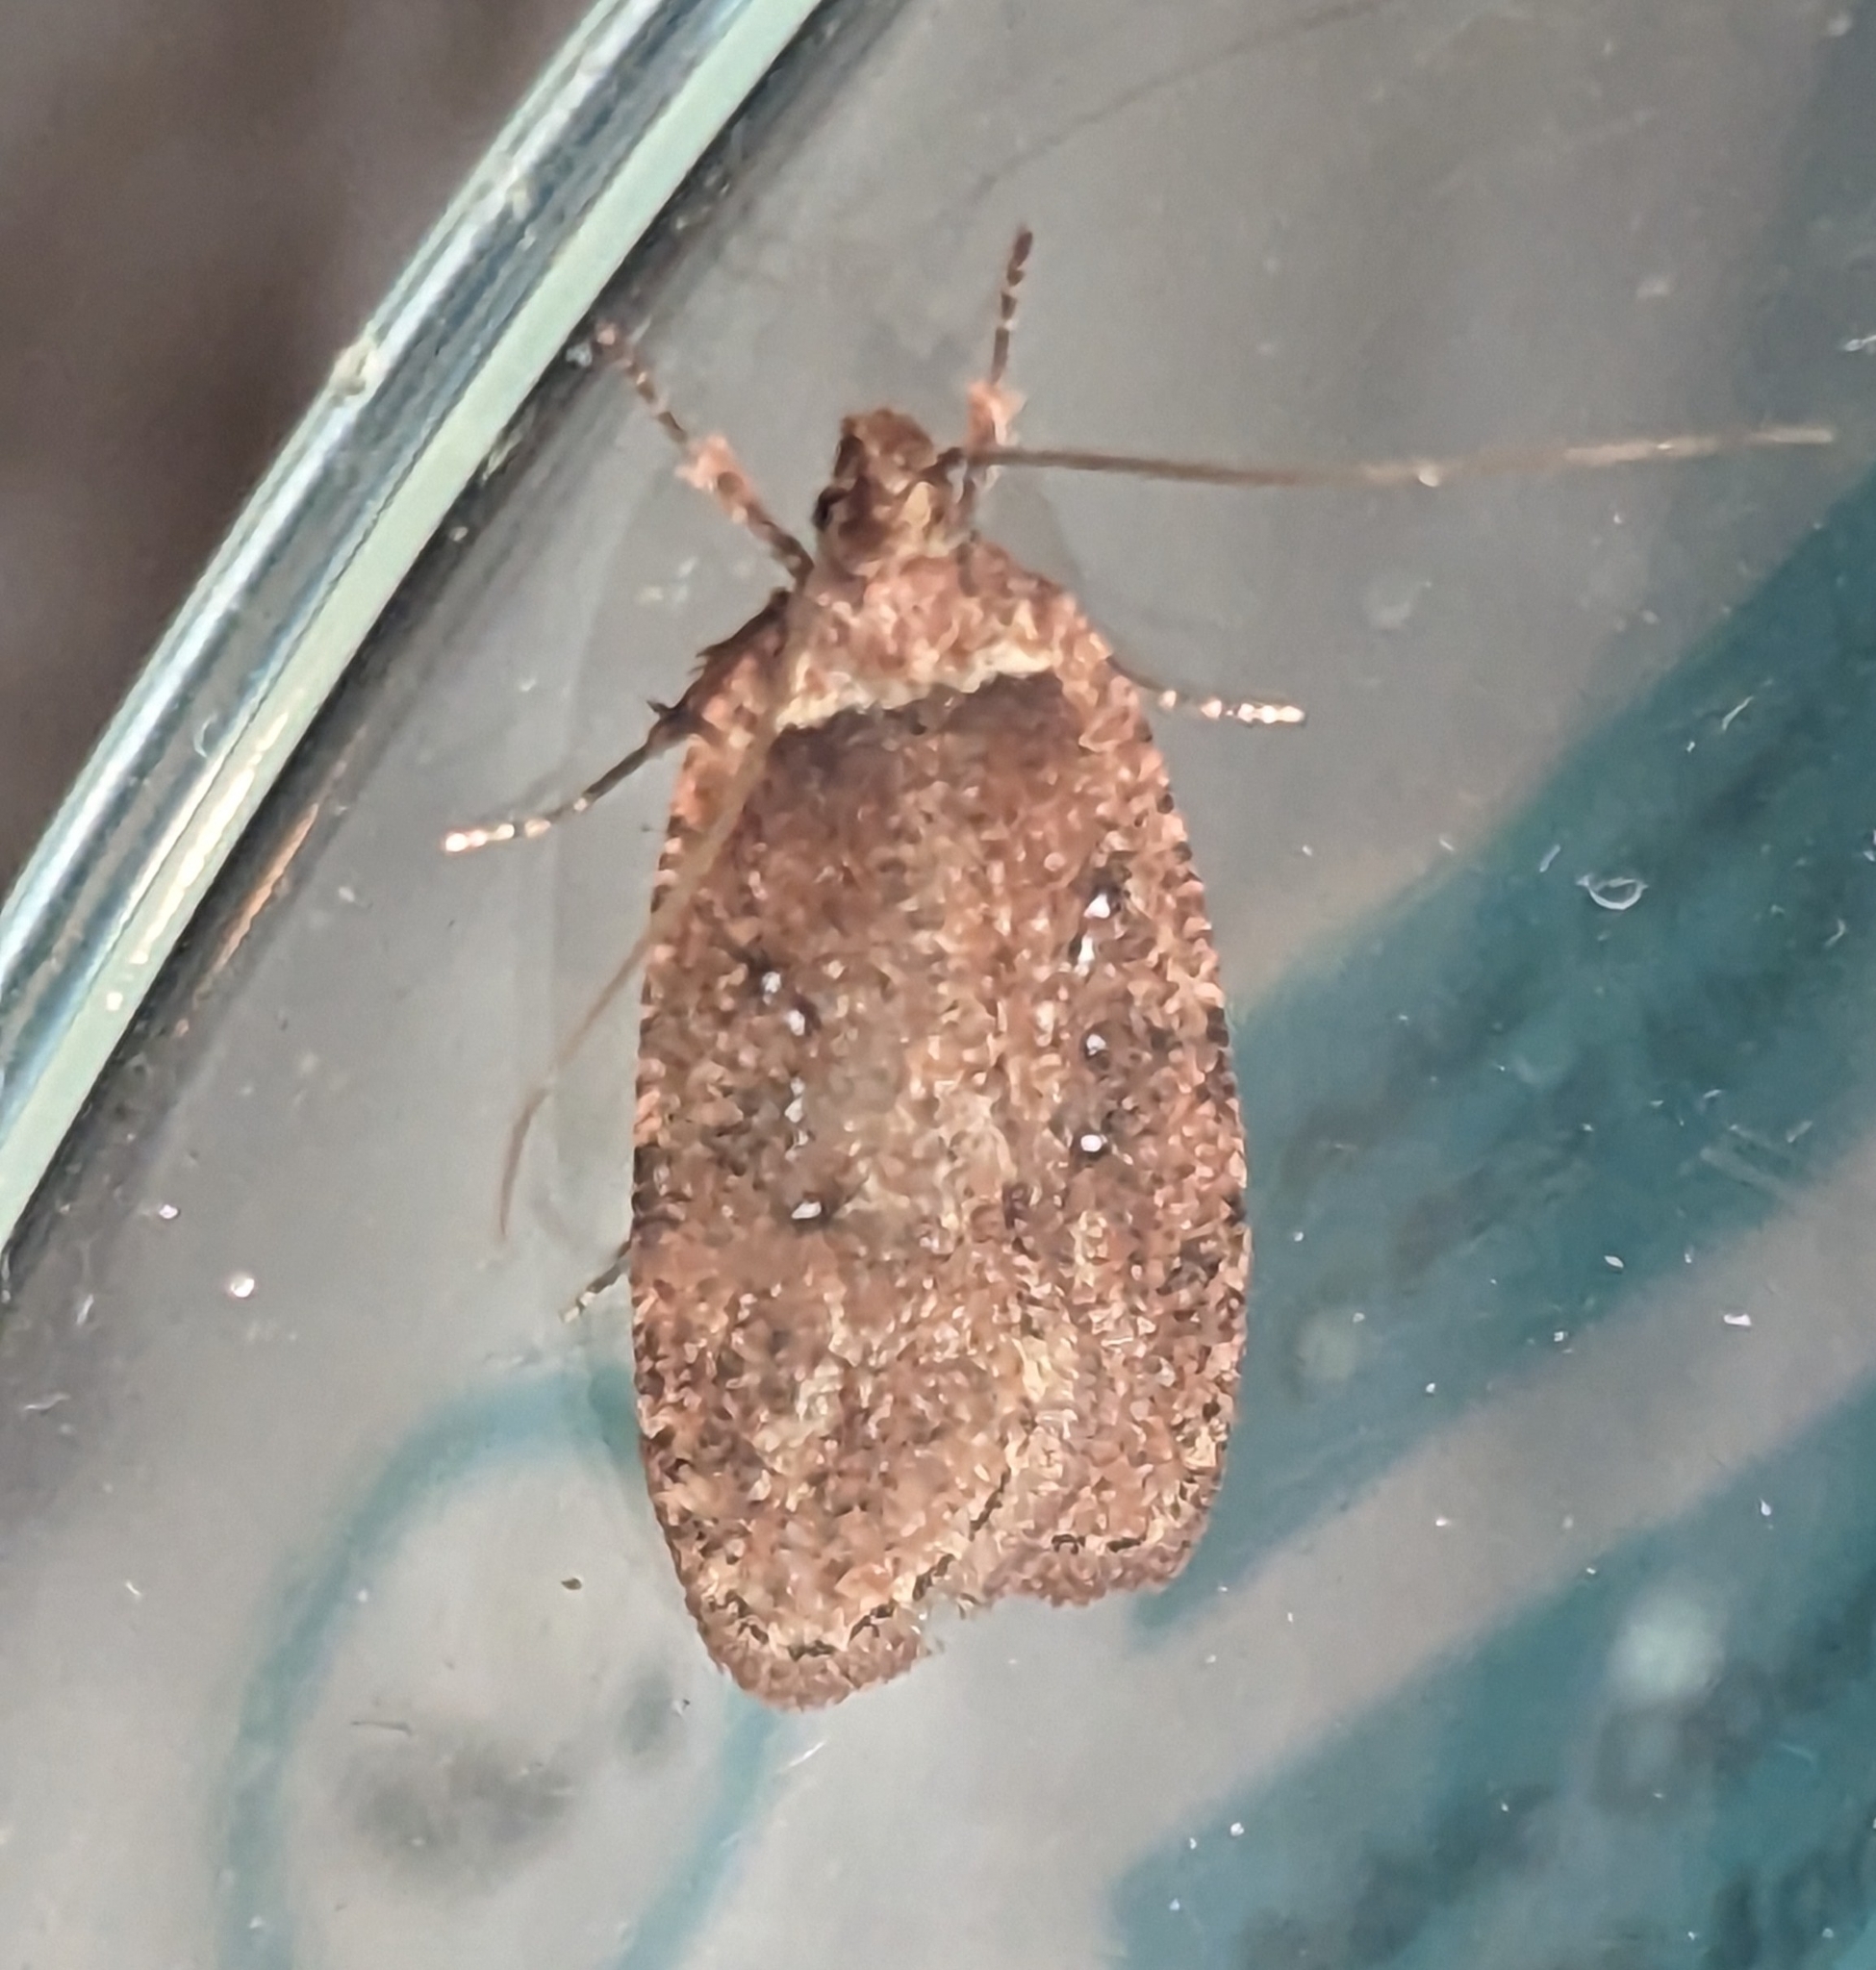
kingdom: Animalia
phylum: Arthropoda
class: Insecta
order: Lepidoptera
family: Depressariidae
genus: Agonopterix
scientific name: Agonopterix rosaciliella
